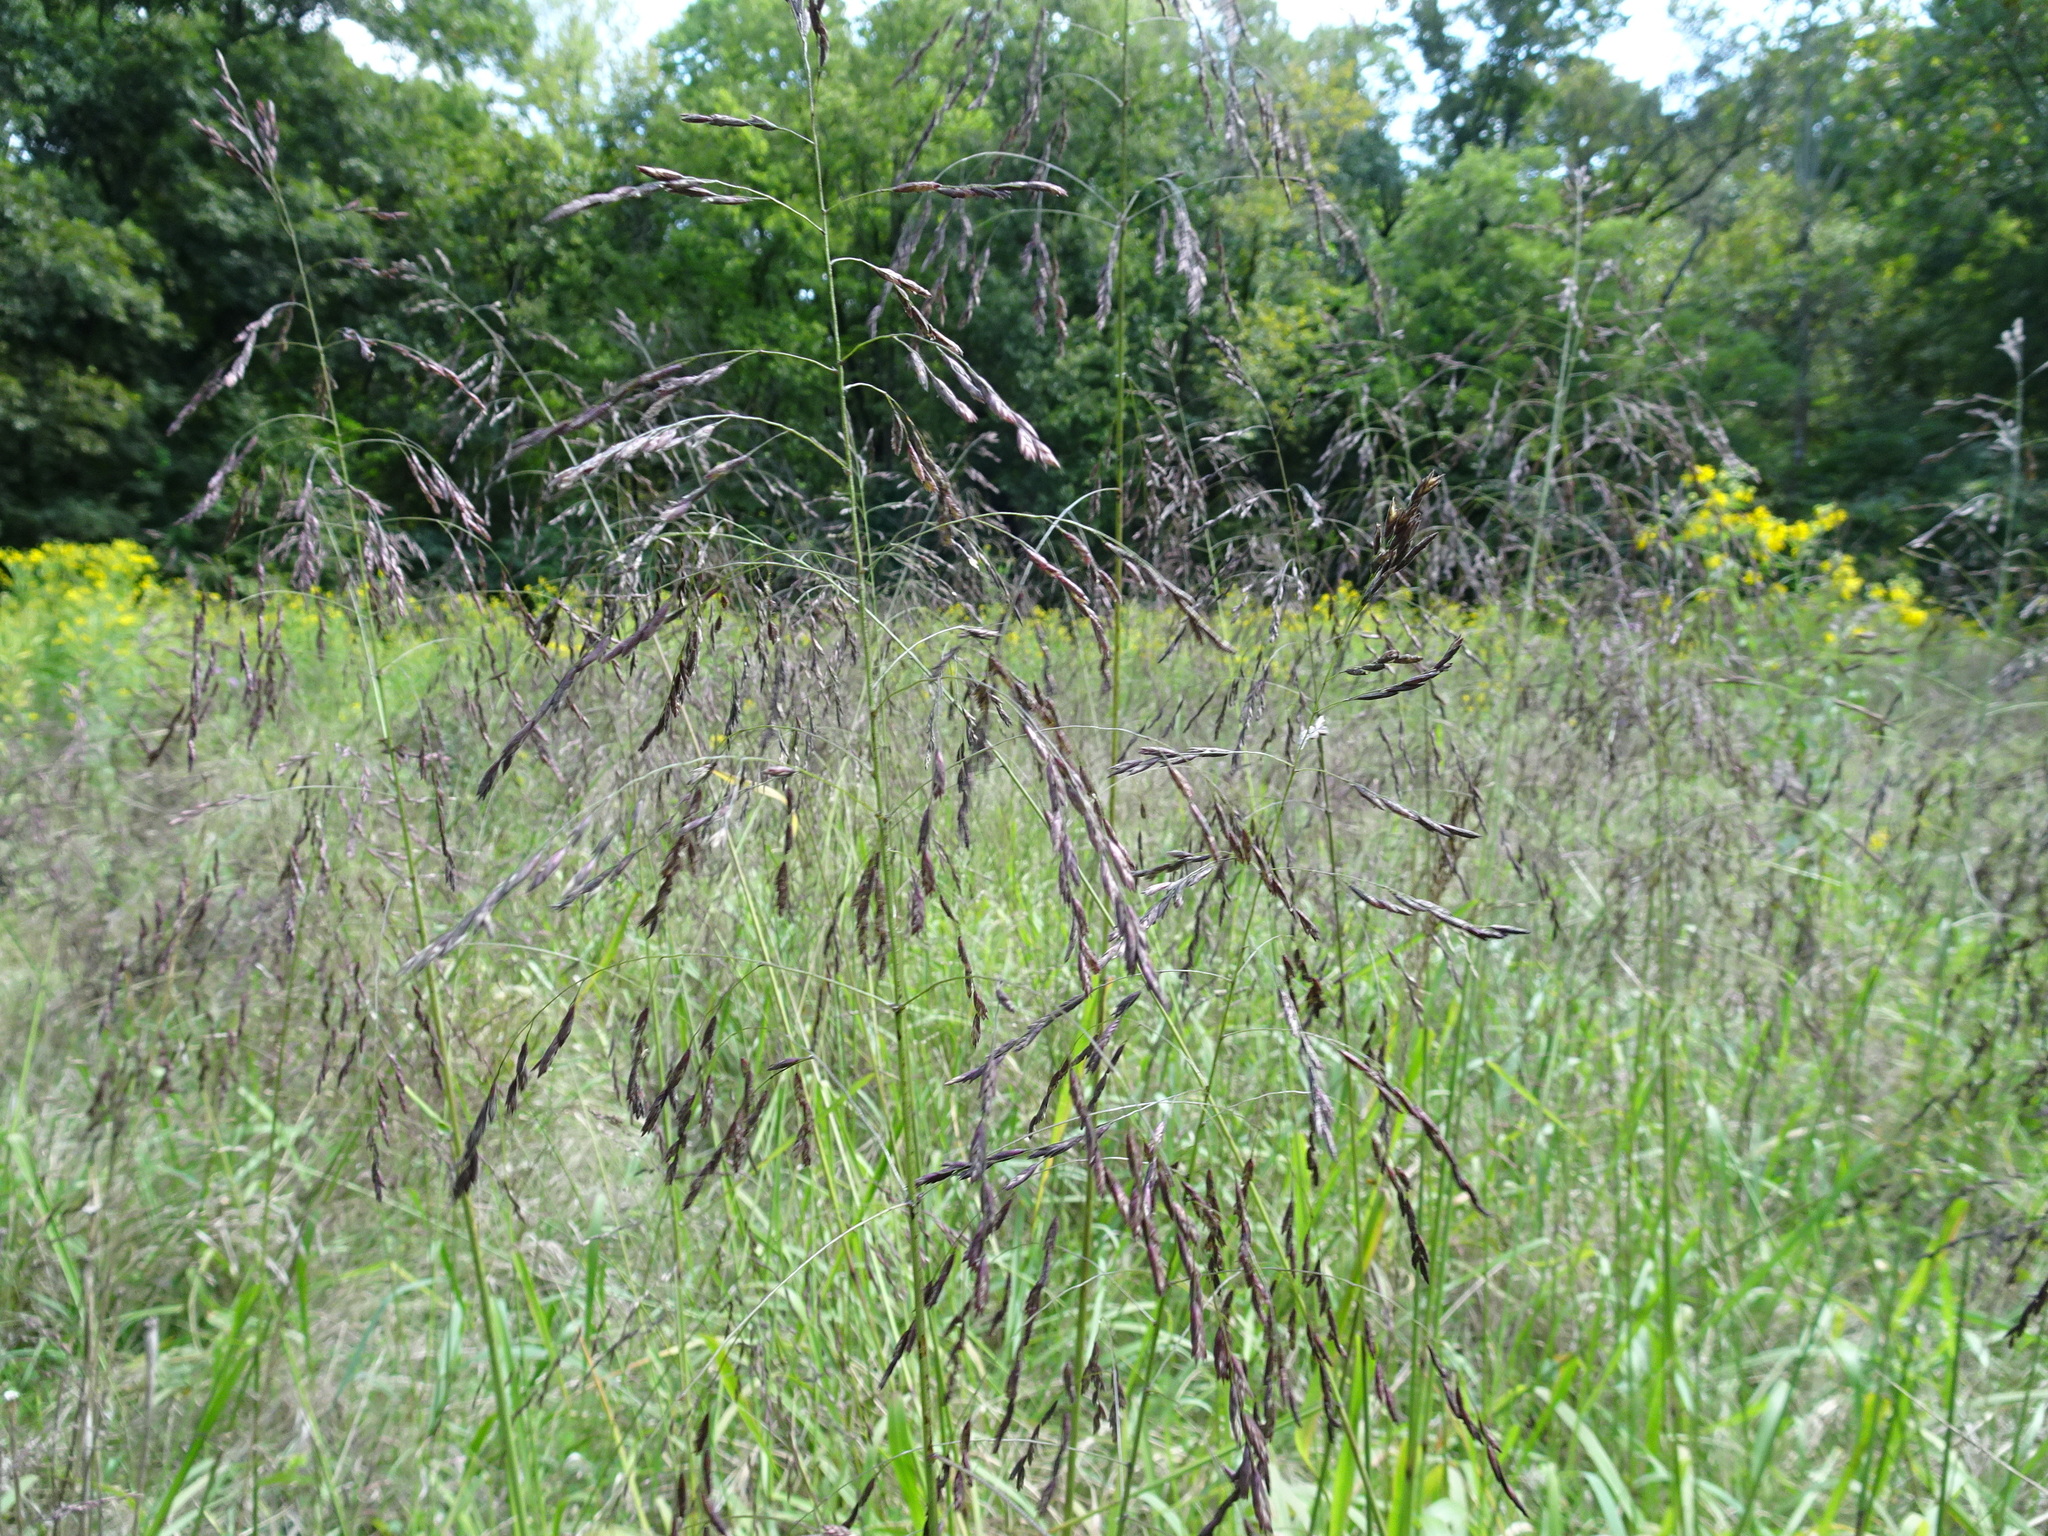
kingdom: Plantae
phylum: Tracheophyta
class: Liliopsida
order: Poales
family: Poaceae
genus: Tridens
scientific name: Tridens flavus
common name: Purpletop
